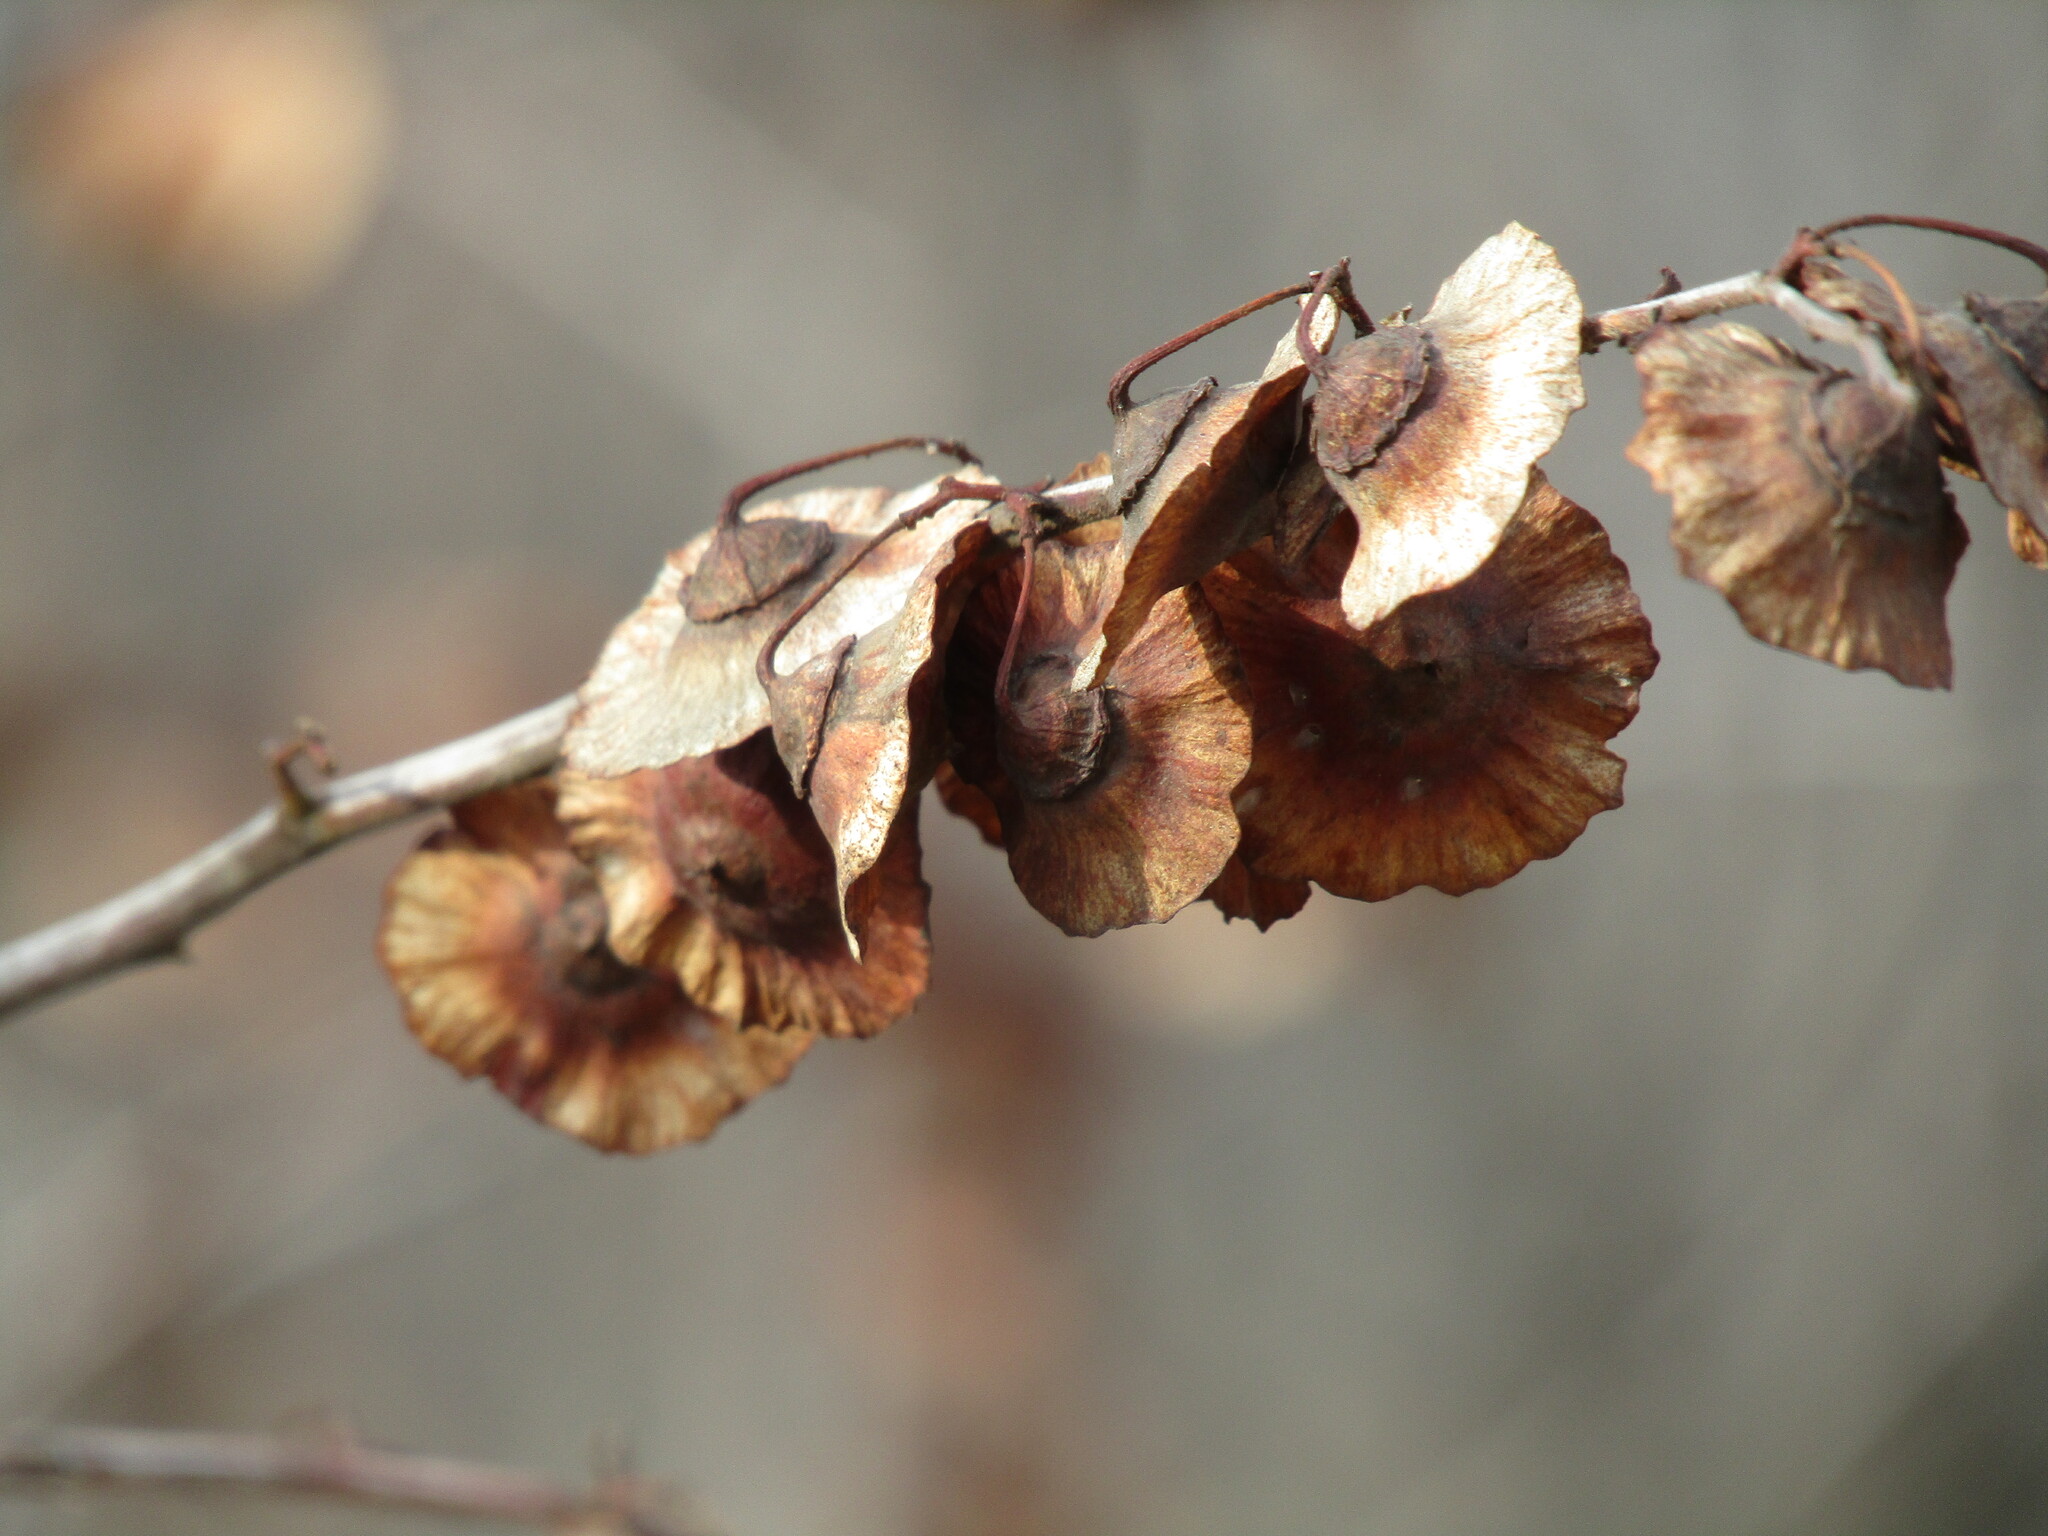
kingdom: Plantae
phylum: Tracheophyta
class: Magnoliopsida
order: Rosales
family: Rhamnaceae
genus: Paliurus
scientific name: Paliurus spina-christi
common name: Jeruselem thorn
